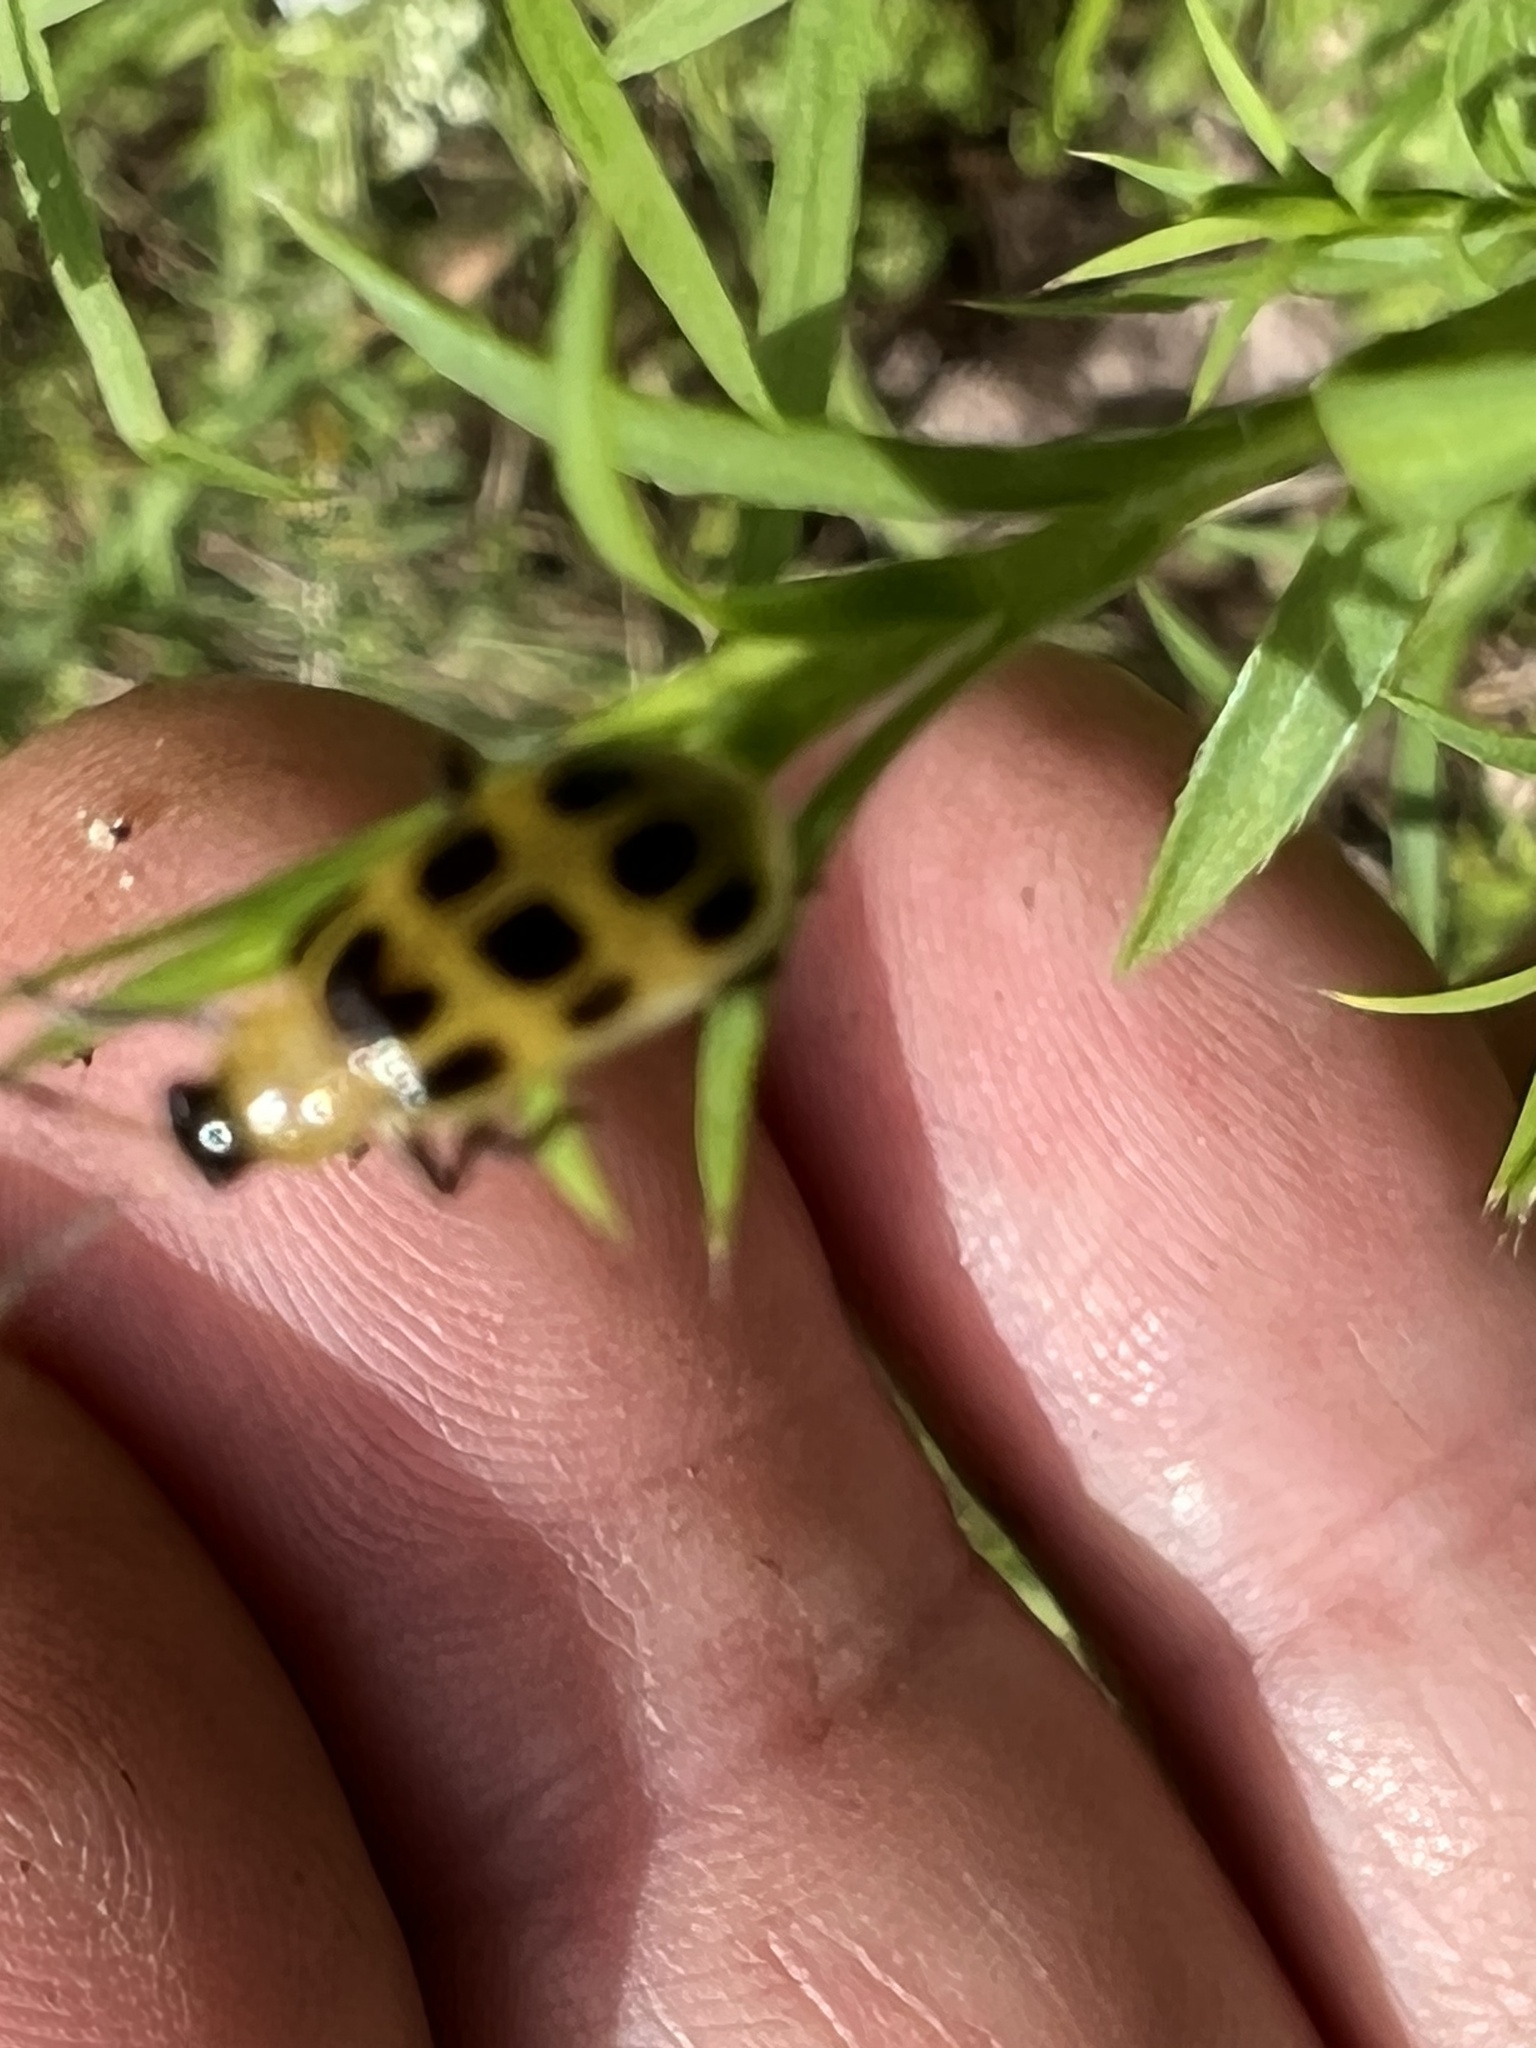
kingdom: Animalia
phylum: Arthropoda
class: Insecta
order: Coleoptera
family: Chrysomelidae
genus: Diabrotica
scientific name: Diabrotica undecimpunctata
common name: Spotted cucumber beetle
